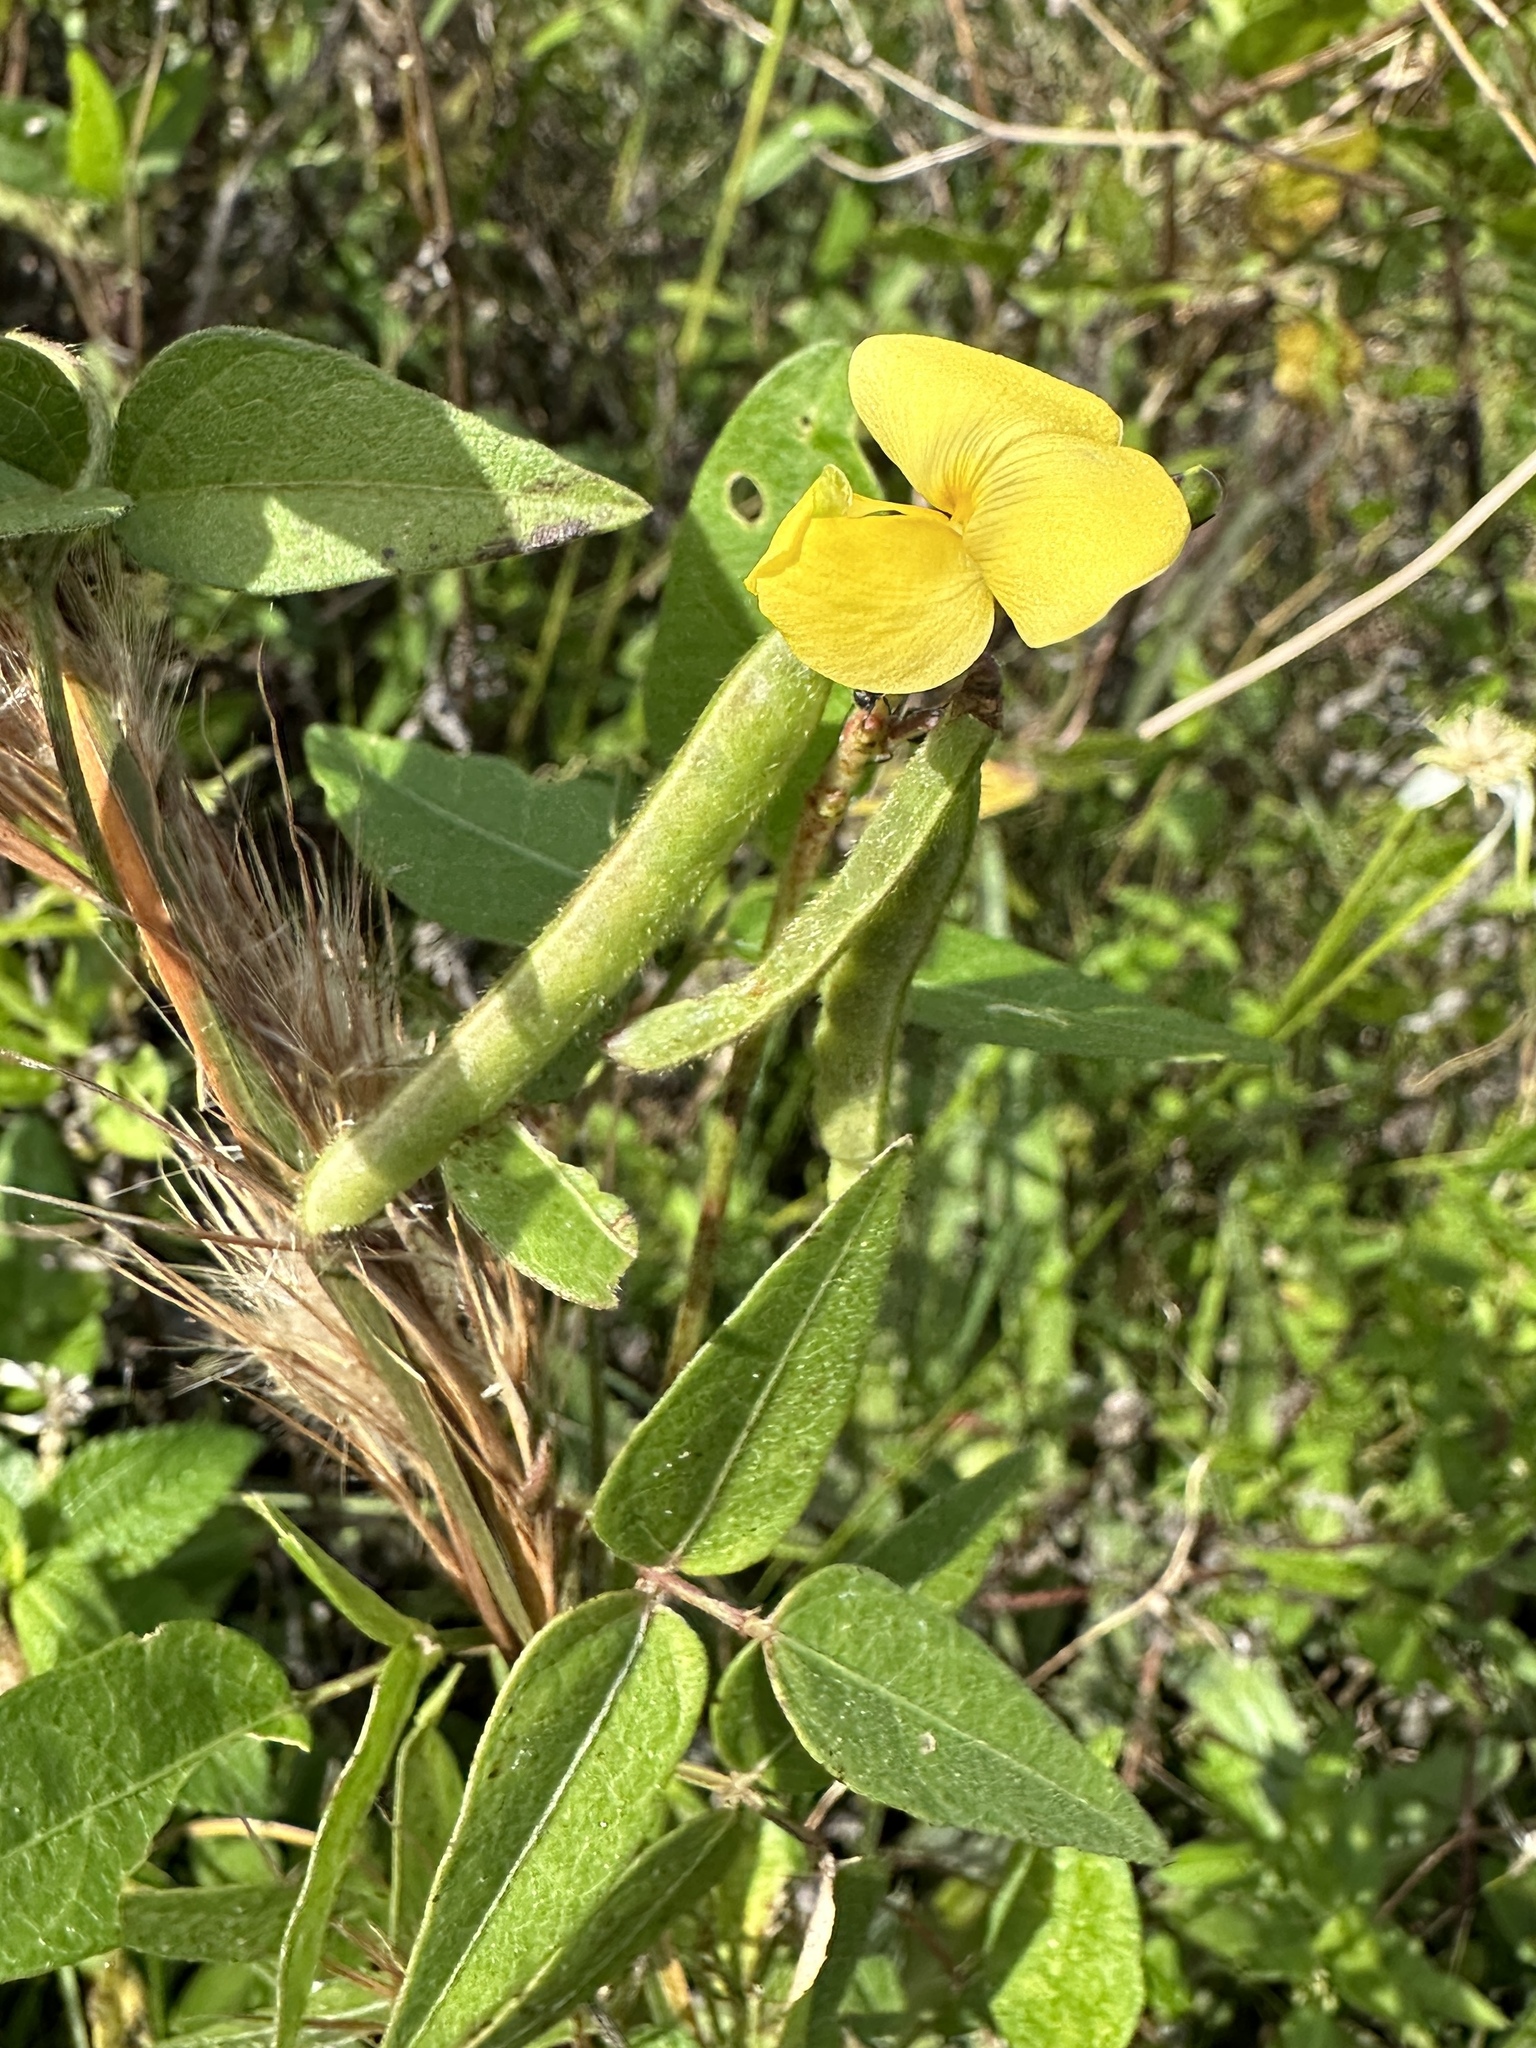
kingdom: Plantae
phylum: Tracheophyta
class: Magnoliopsida
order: Fabales
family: Fabaceae
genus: Vigna
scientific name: Vigna luteola
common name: Hairypod cowpea
